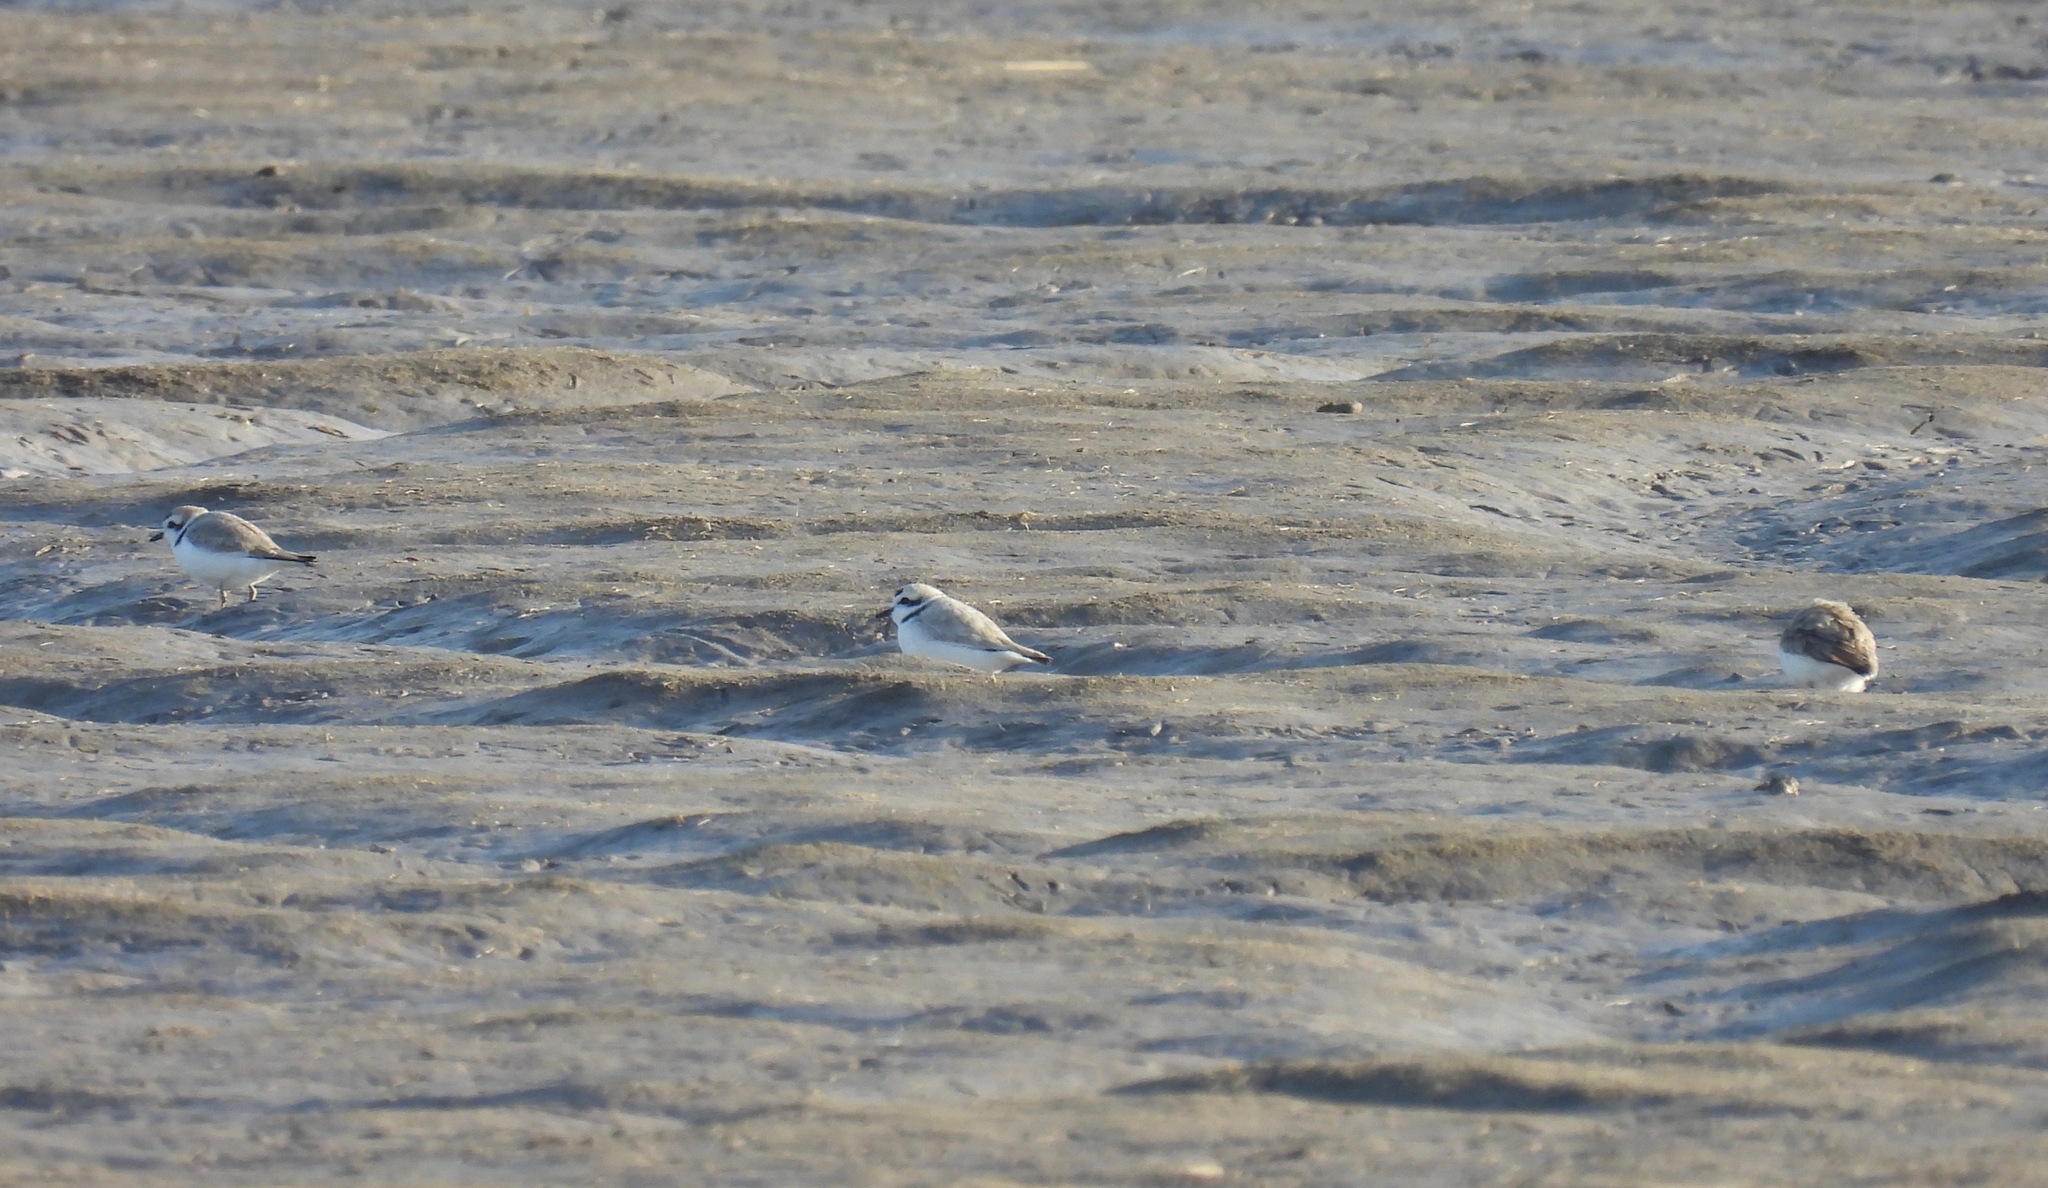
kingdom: Animalia
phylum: Chordata
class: Aves
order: Charadriiformes
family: Charadriidae
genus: Anarhynchus
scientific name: Anarhynchus
